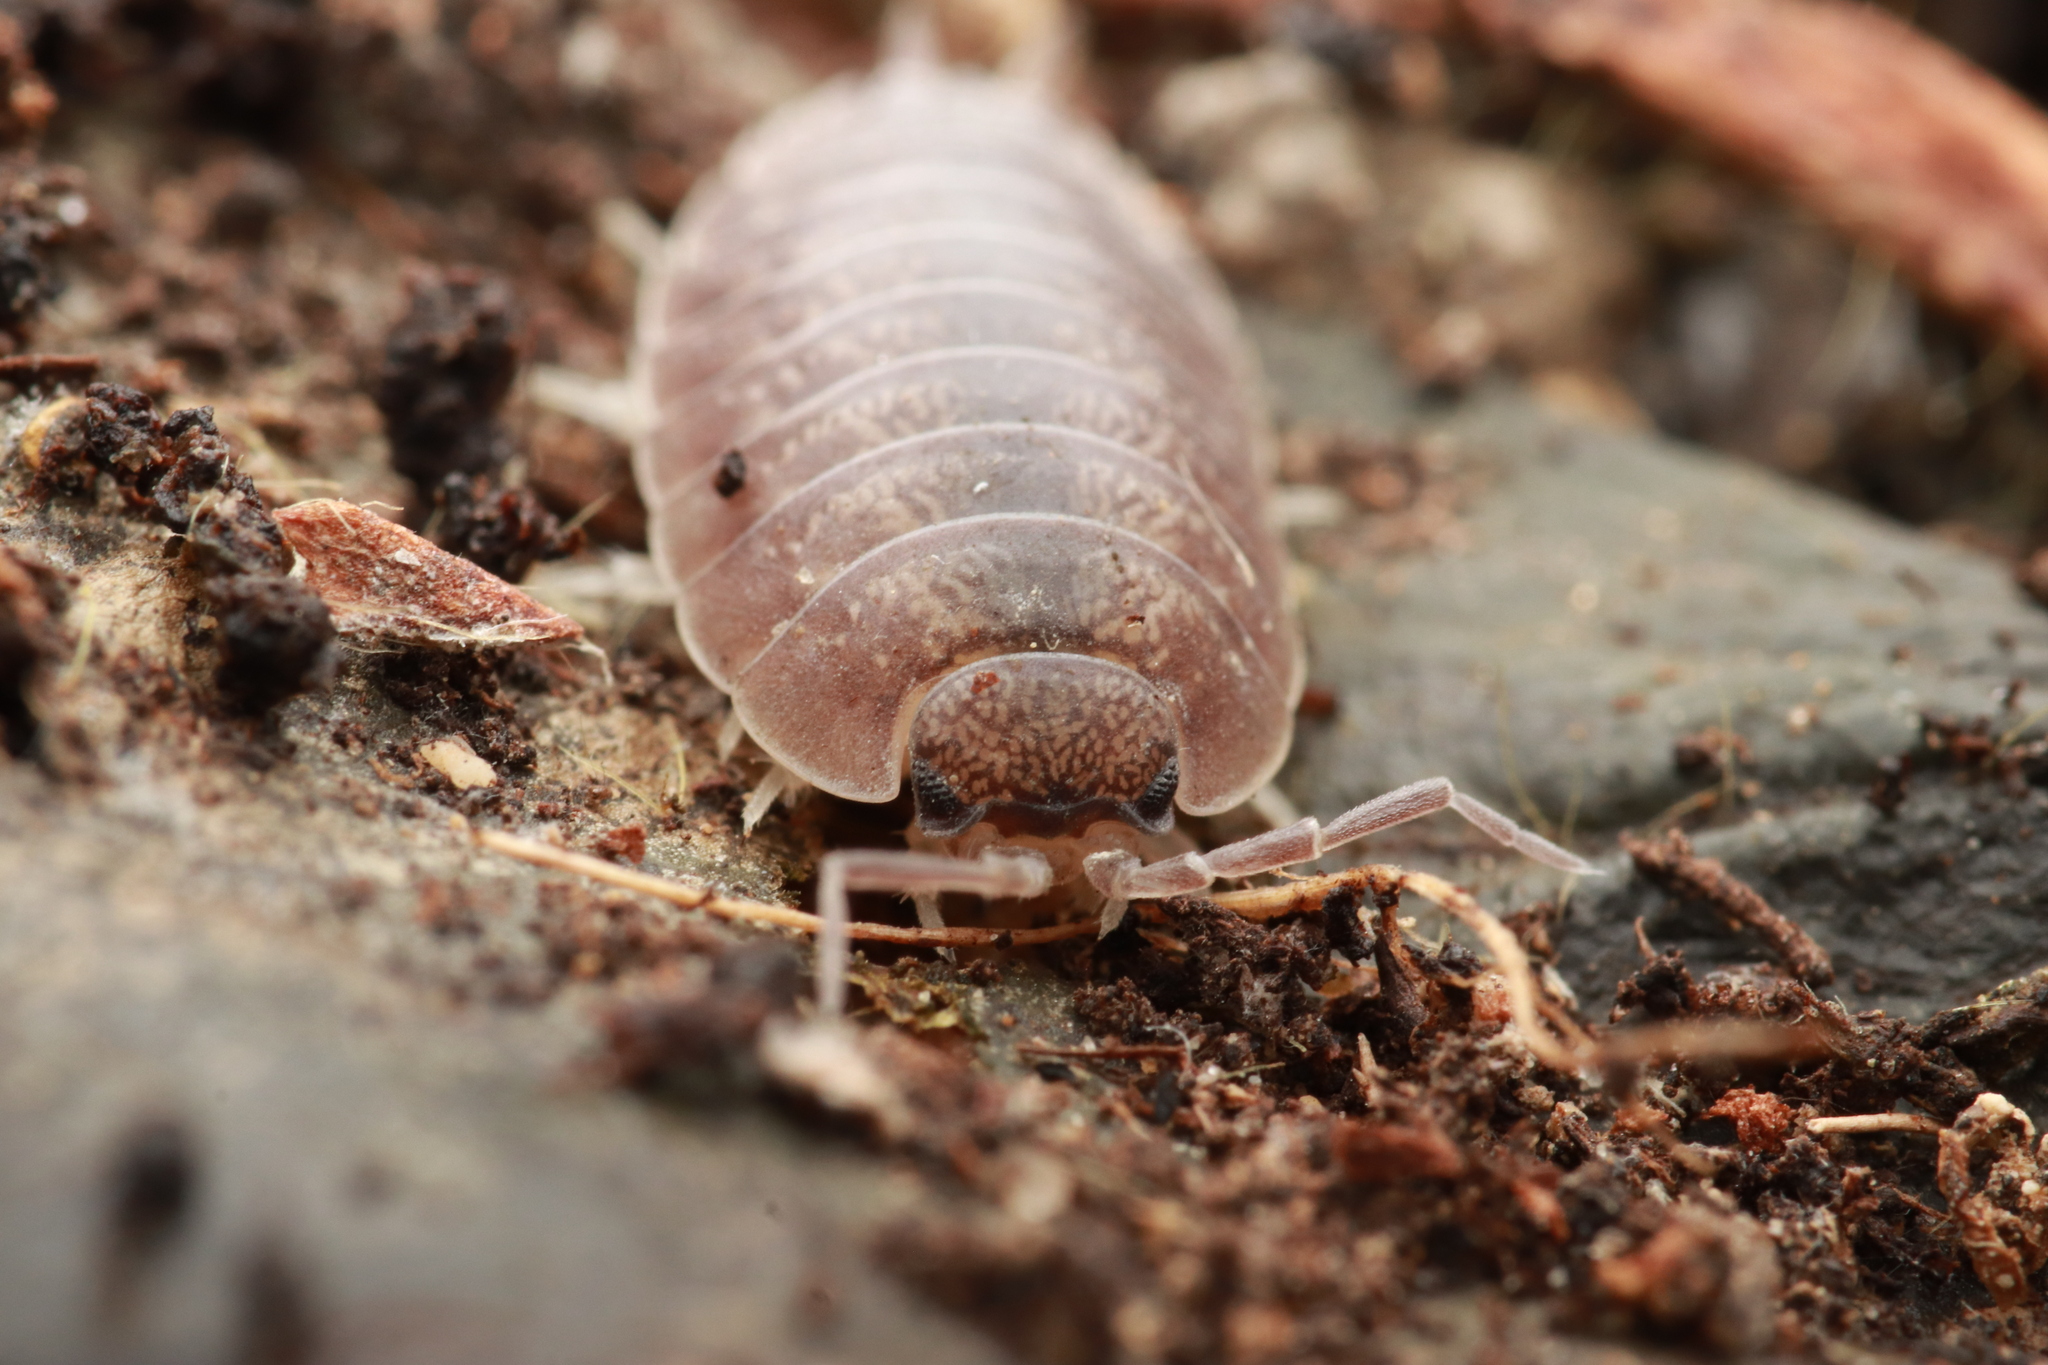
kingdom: Animalia
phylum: Arthropoda
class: Malacostraca
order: Isopoda
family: Porcellionidae
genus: Porcellio
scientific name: Porcellio laevis
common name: Swift woodlouse
